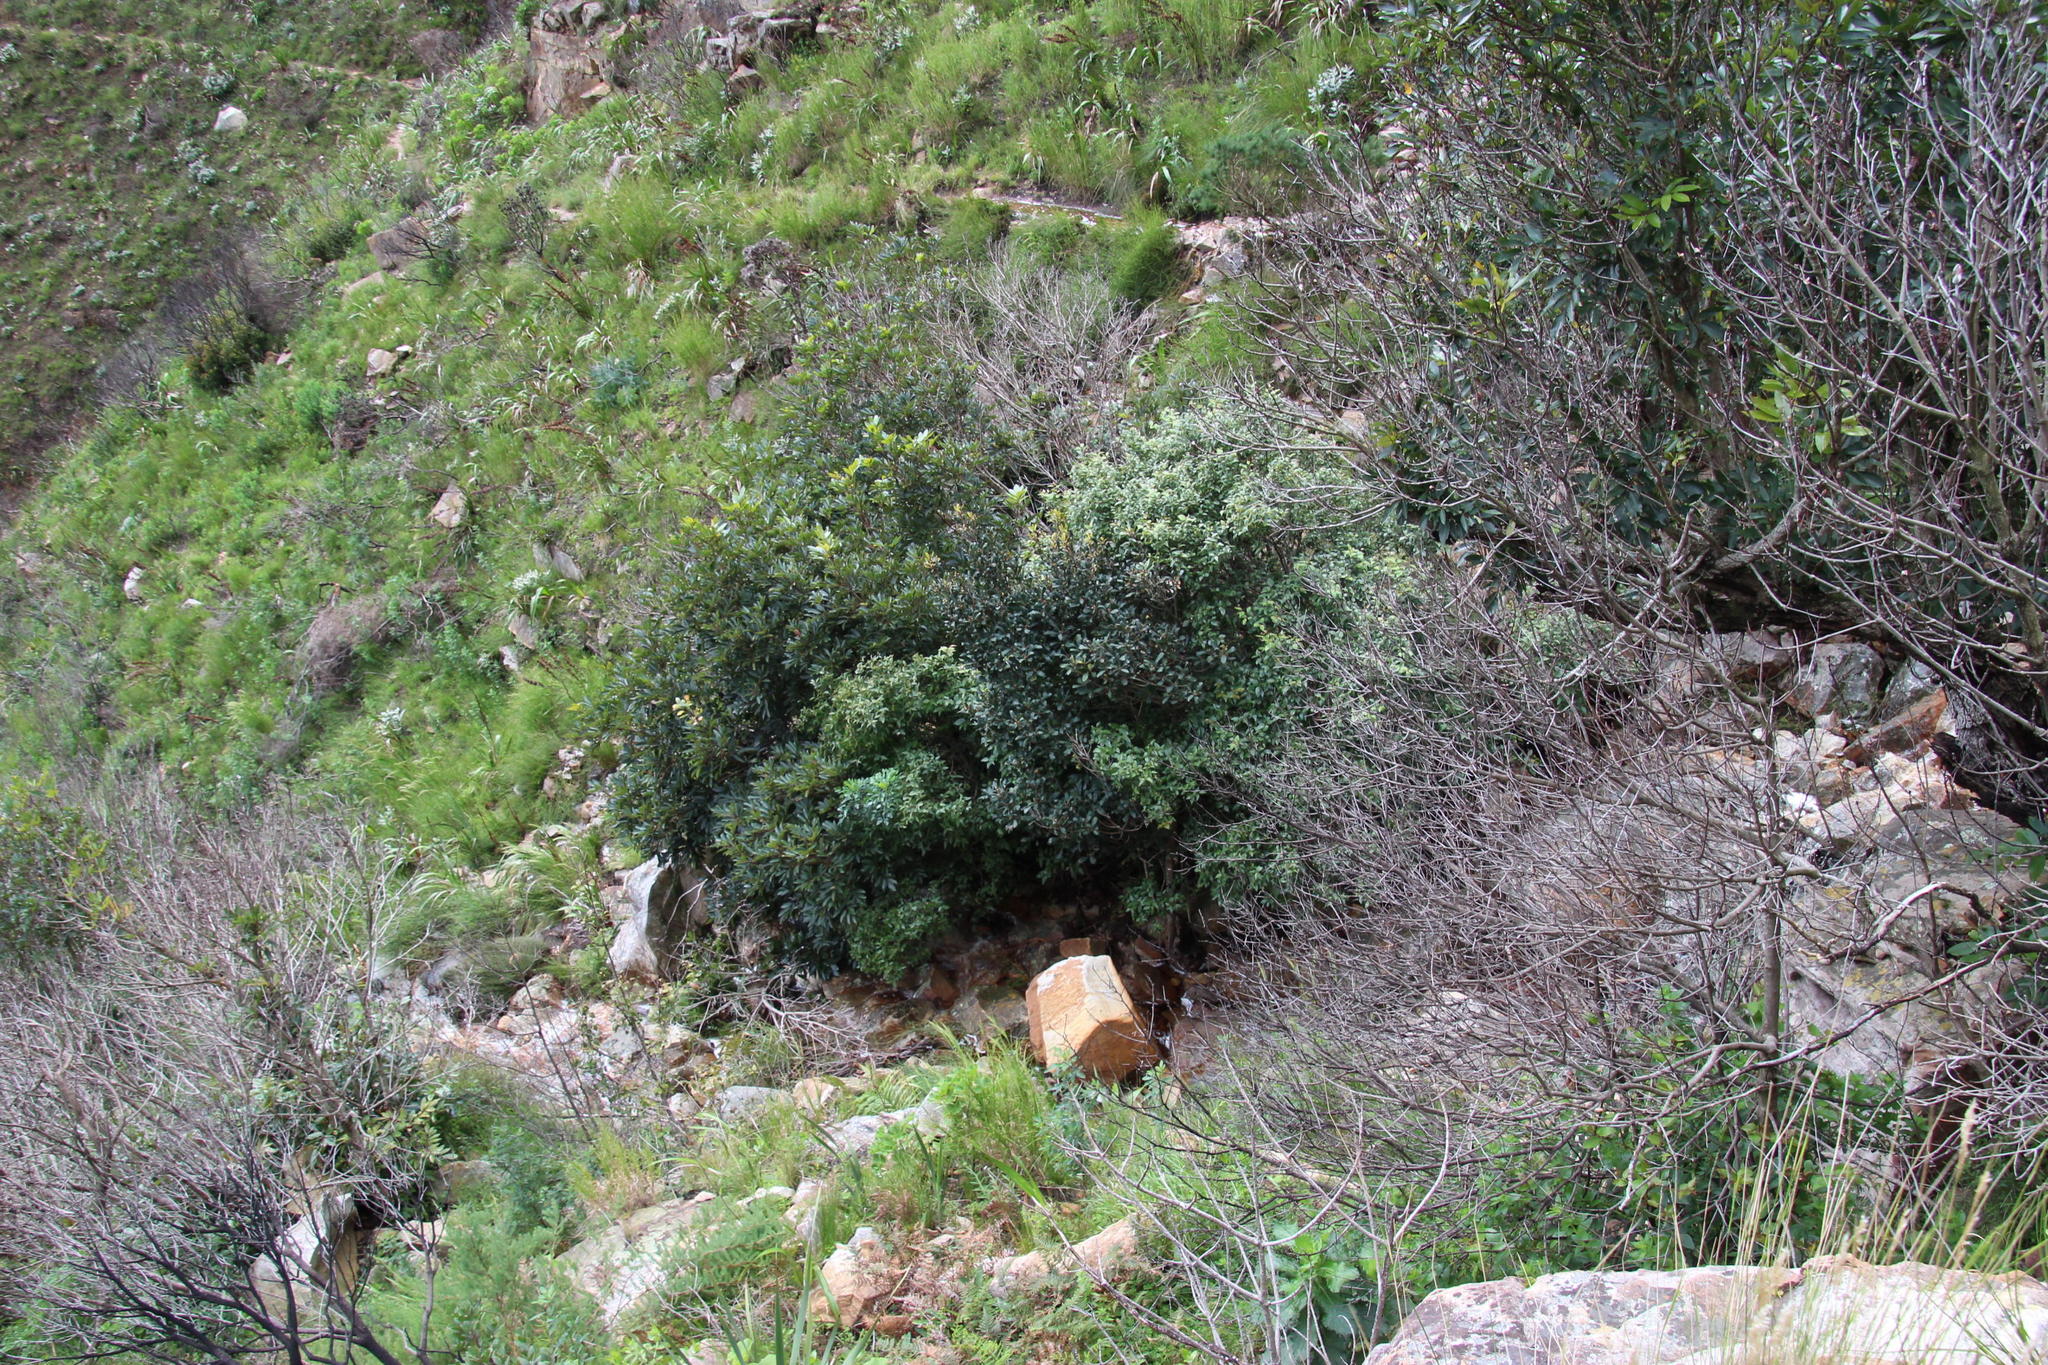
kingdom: Plantae
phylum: Tracheophyta
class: Magnoliopsida
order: Ericales
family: Primulaceae
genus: Myrsine
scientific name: Myrsine melanophloeos
